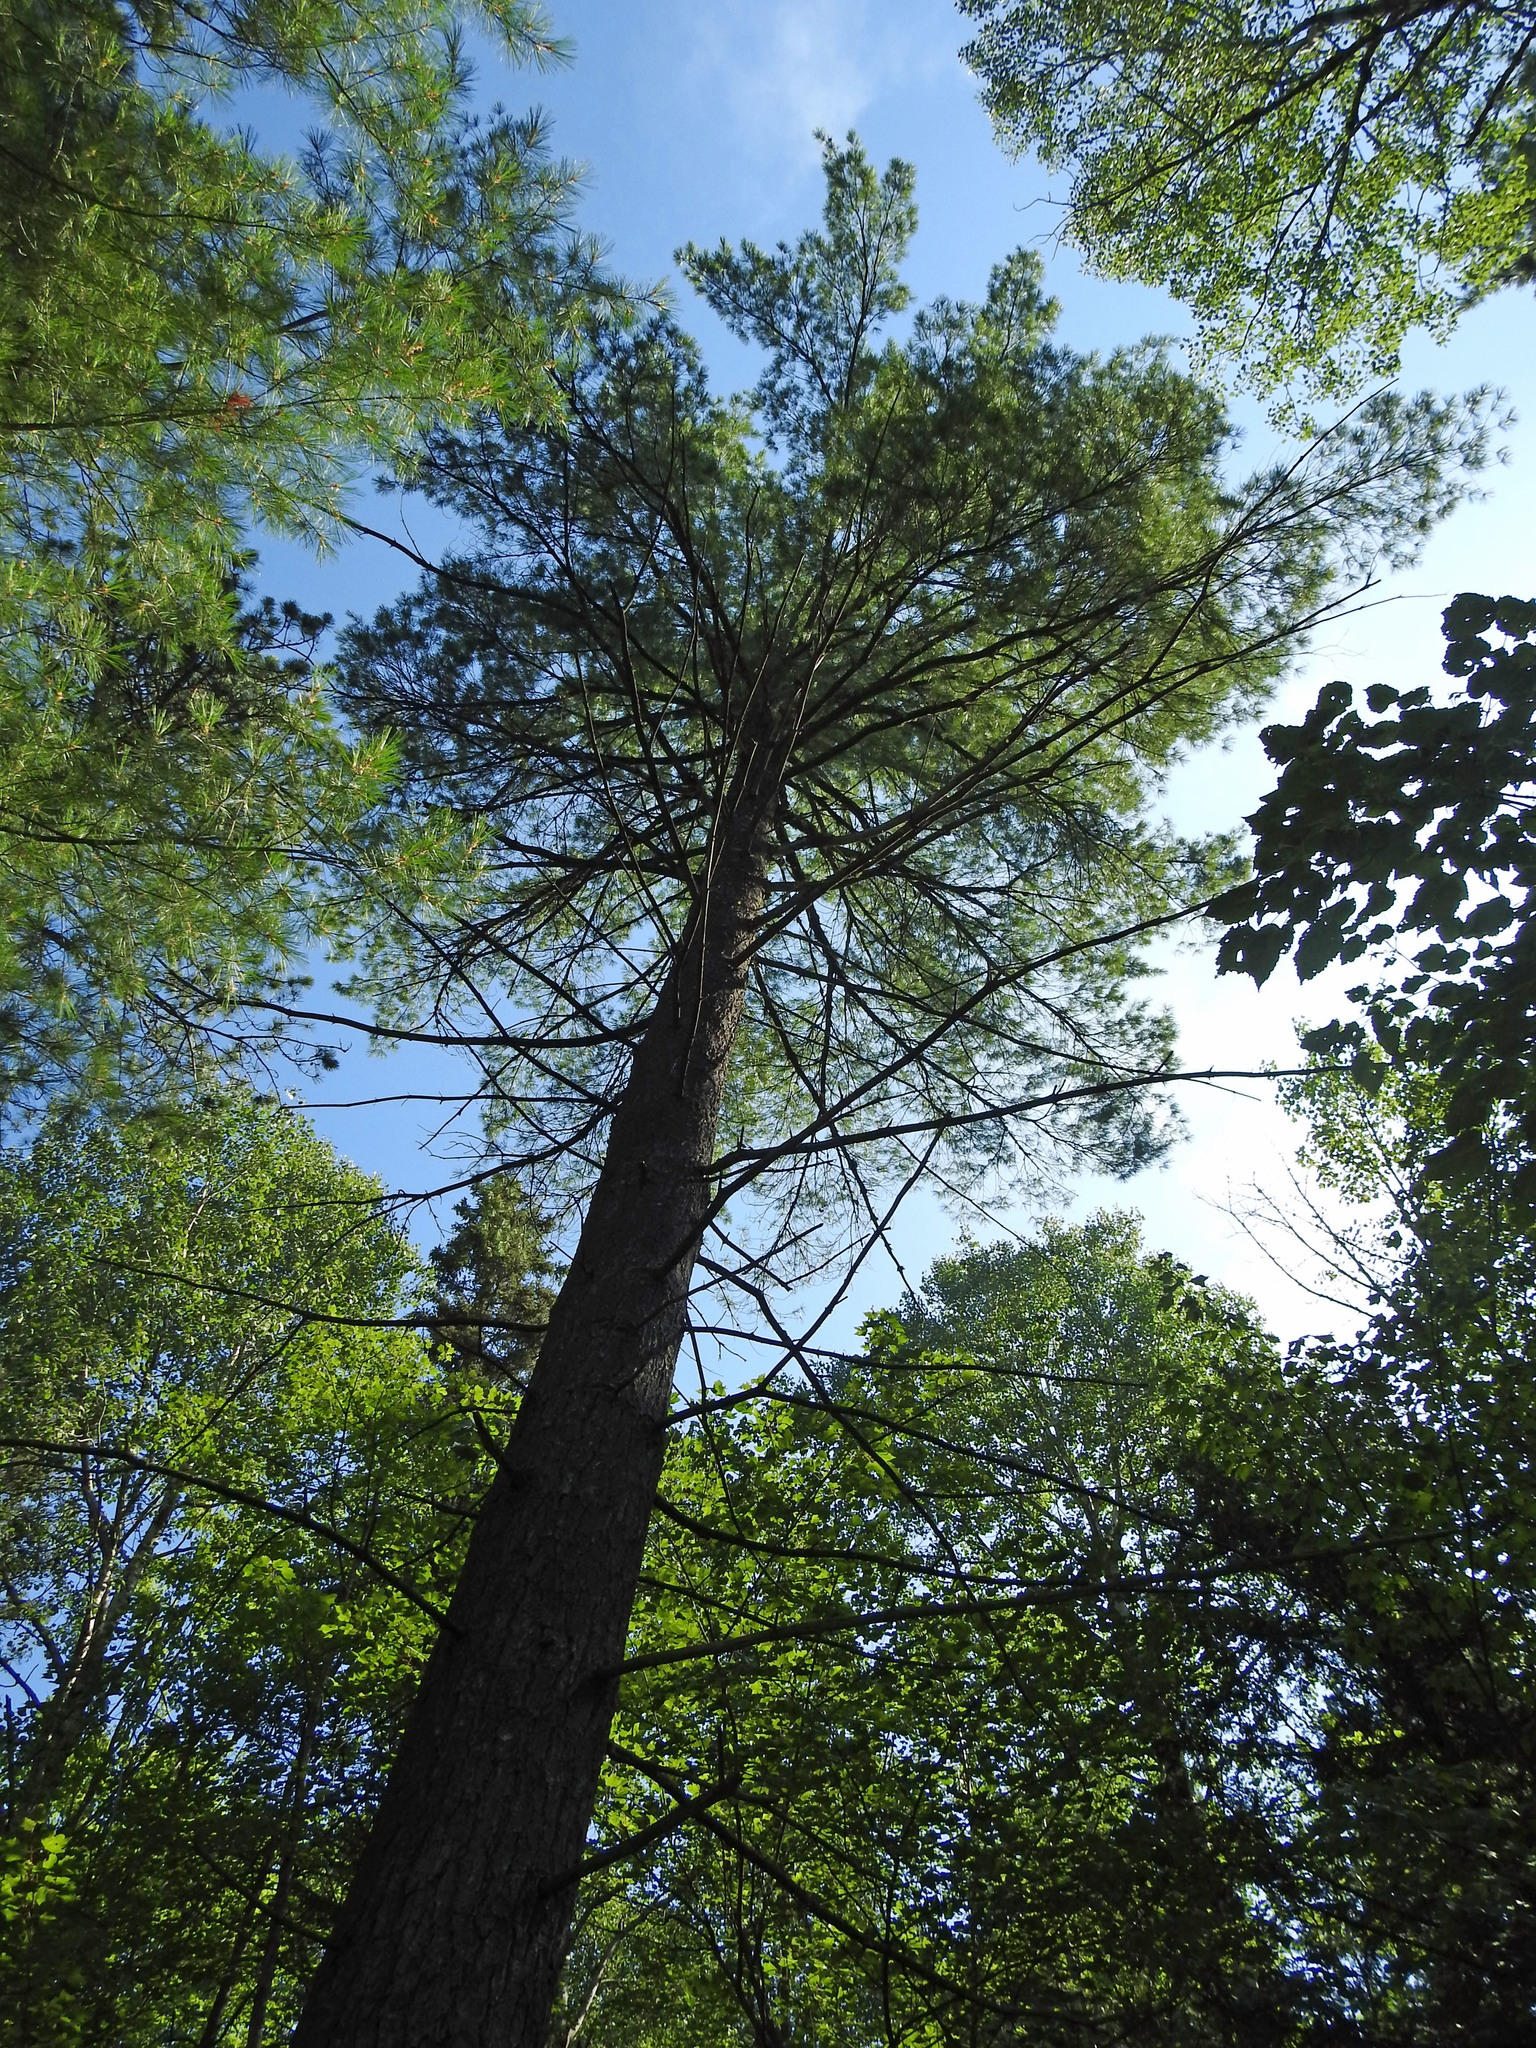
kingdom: Plantae
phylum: Tracheophyta
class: Pinopsida
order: Pinales
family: Pinaceae
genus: Pinus
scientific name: Pinus strobus
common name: Weymouth pine
